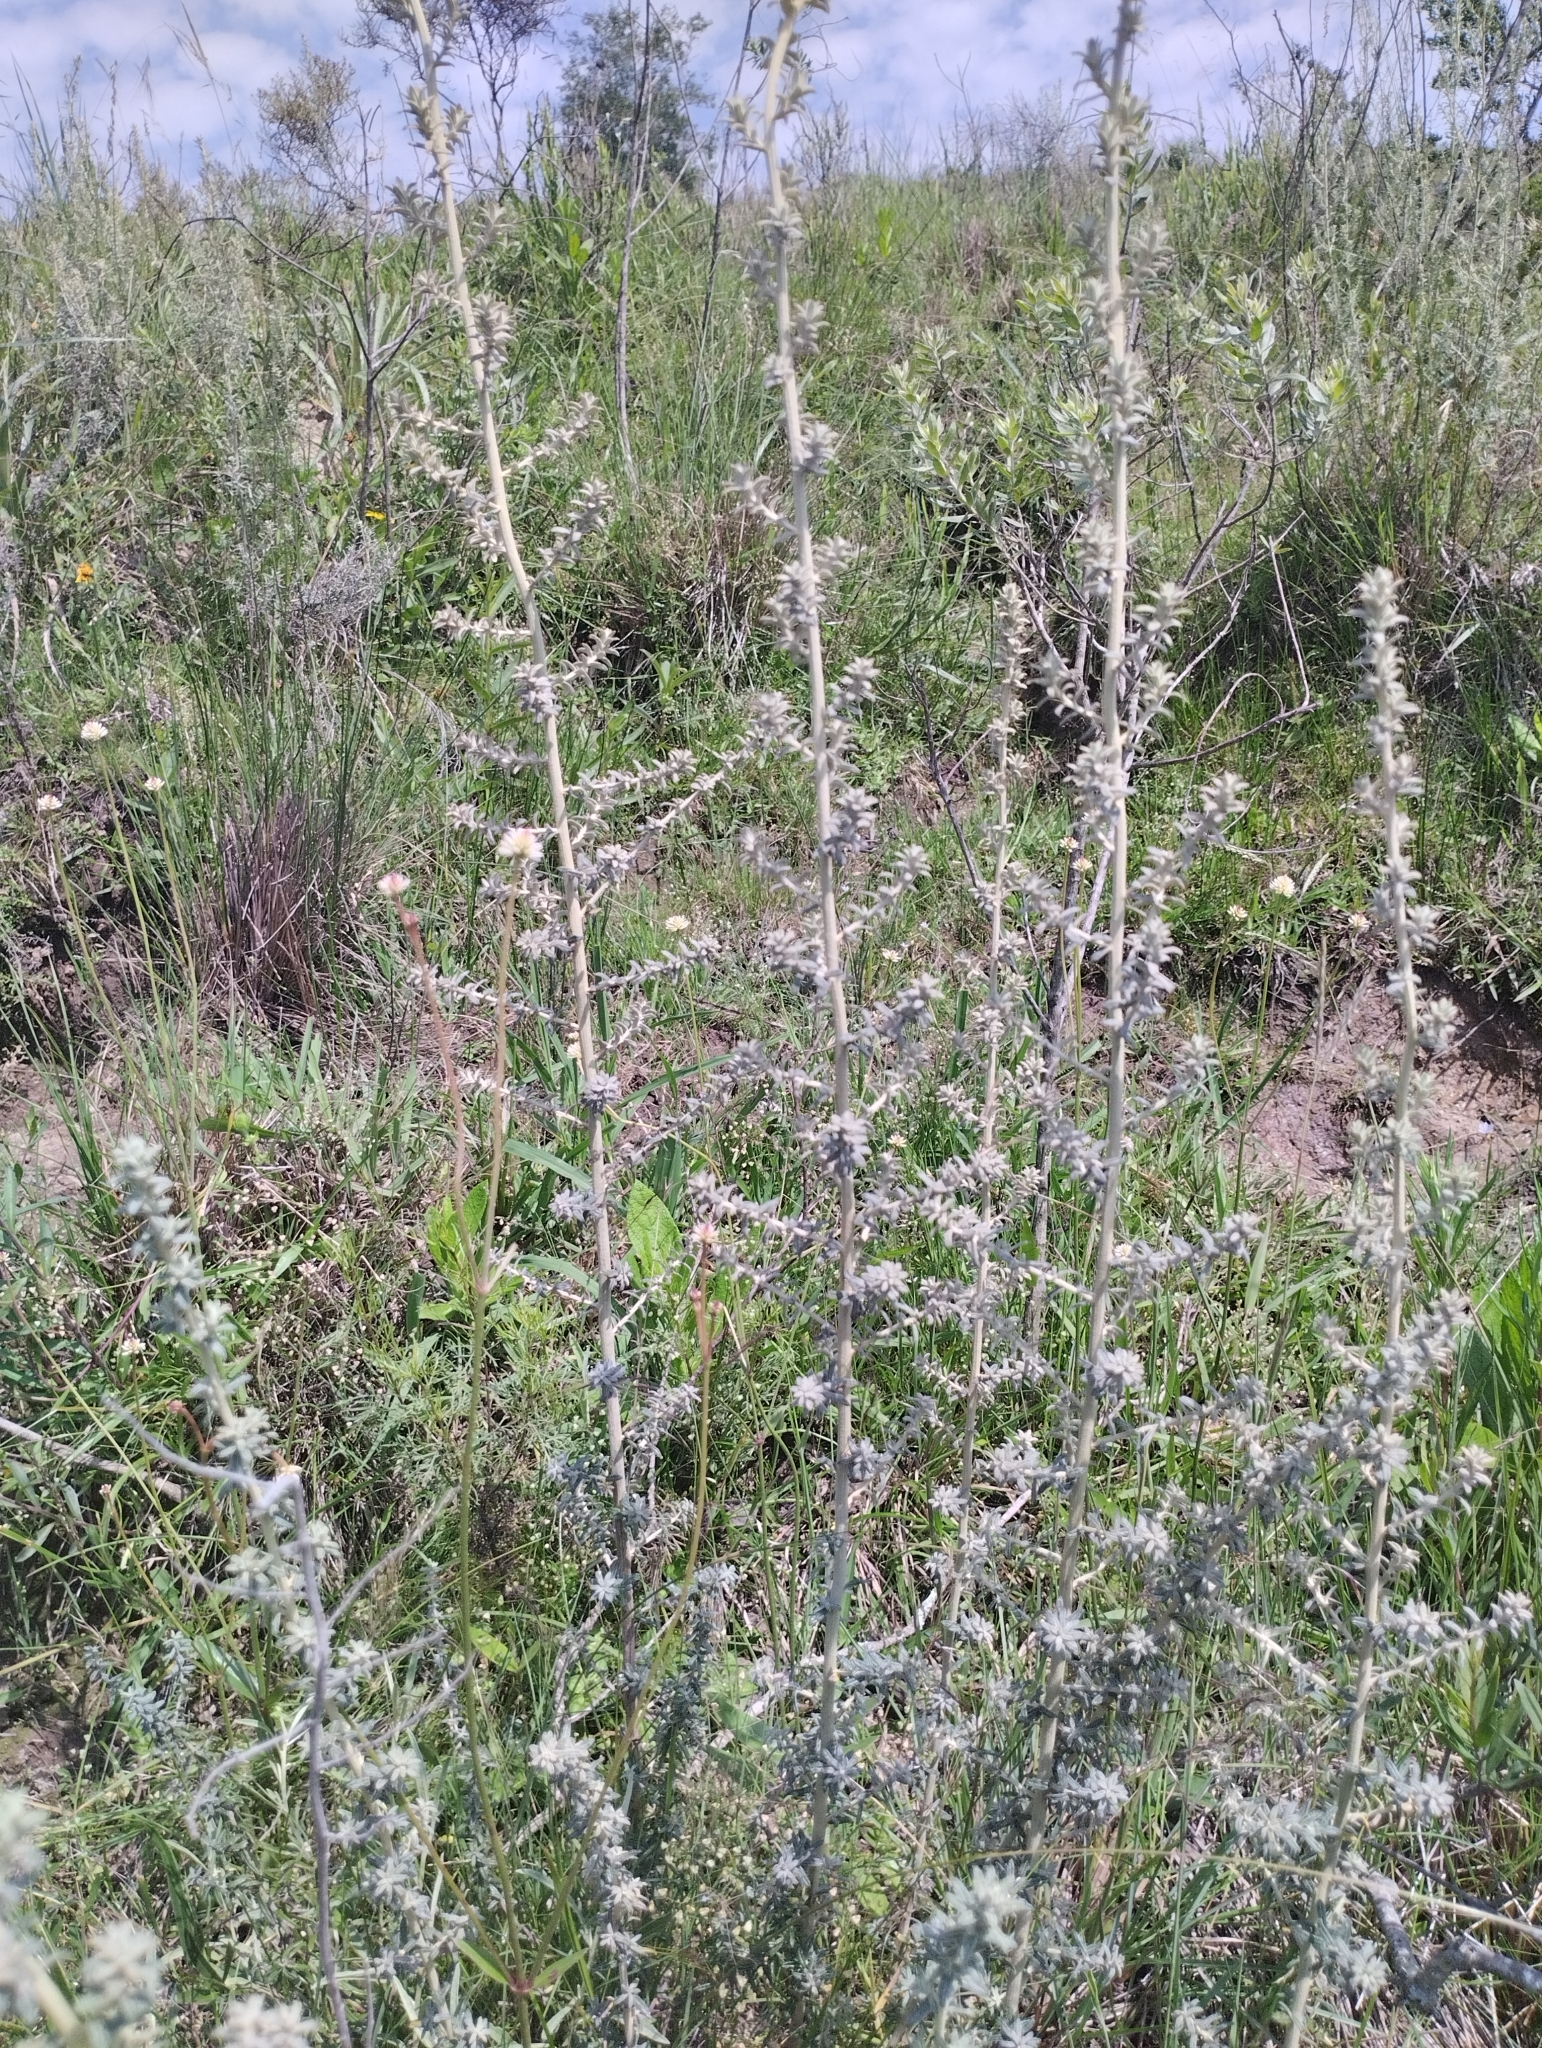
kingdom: Plantae
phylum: Tracheophyta
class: Magnoliopsida
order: Asterales
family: Asteraceae
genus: Baccharis
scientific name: Baccharis ochracea
